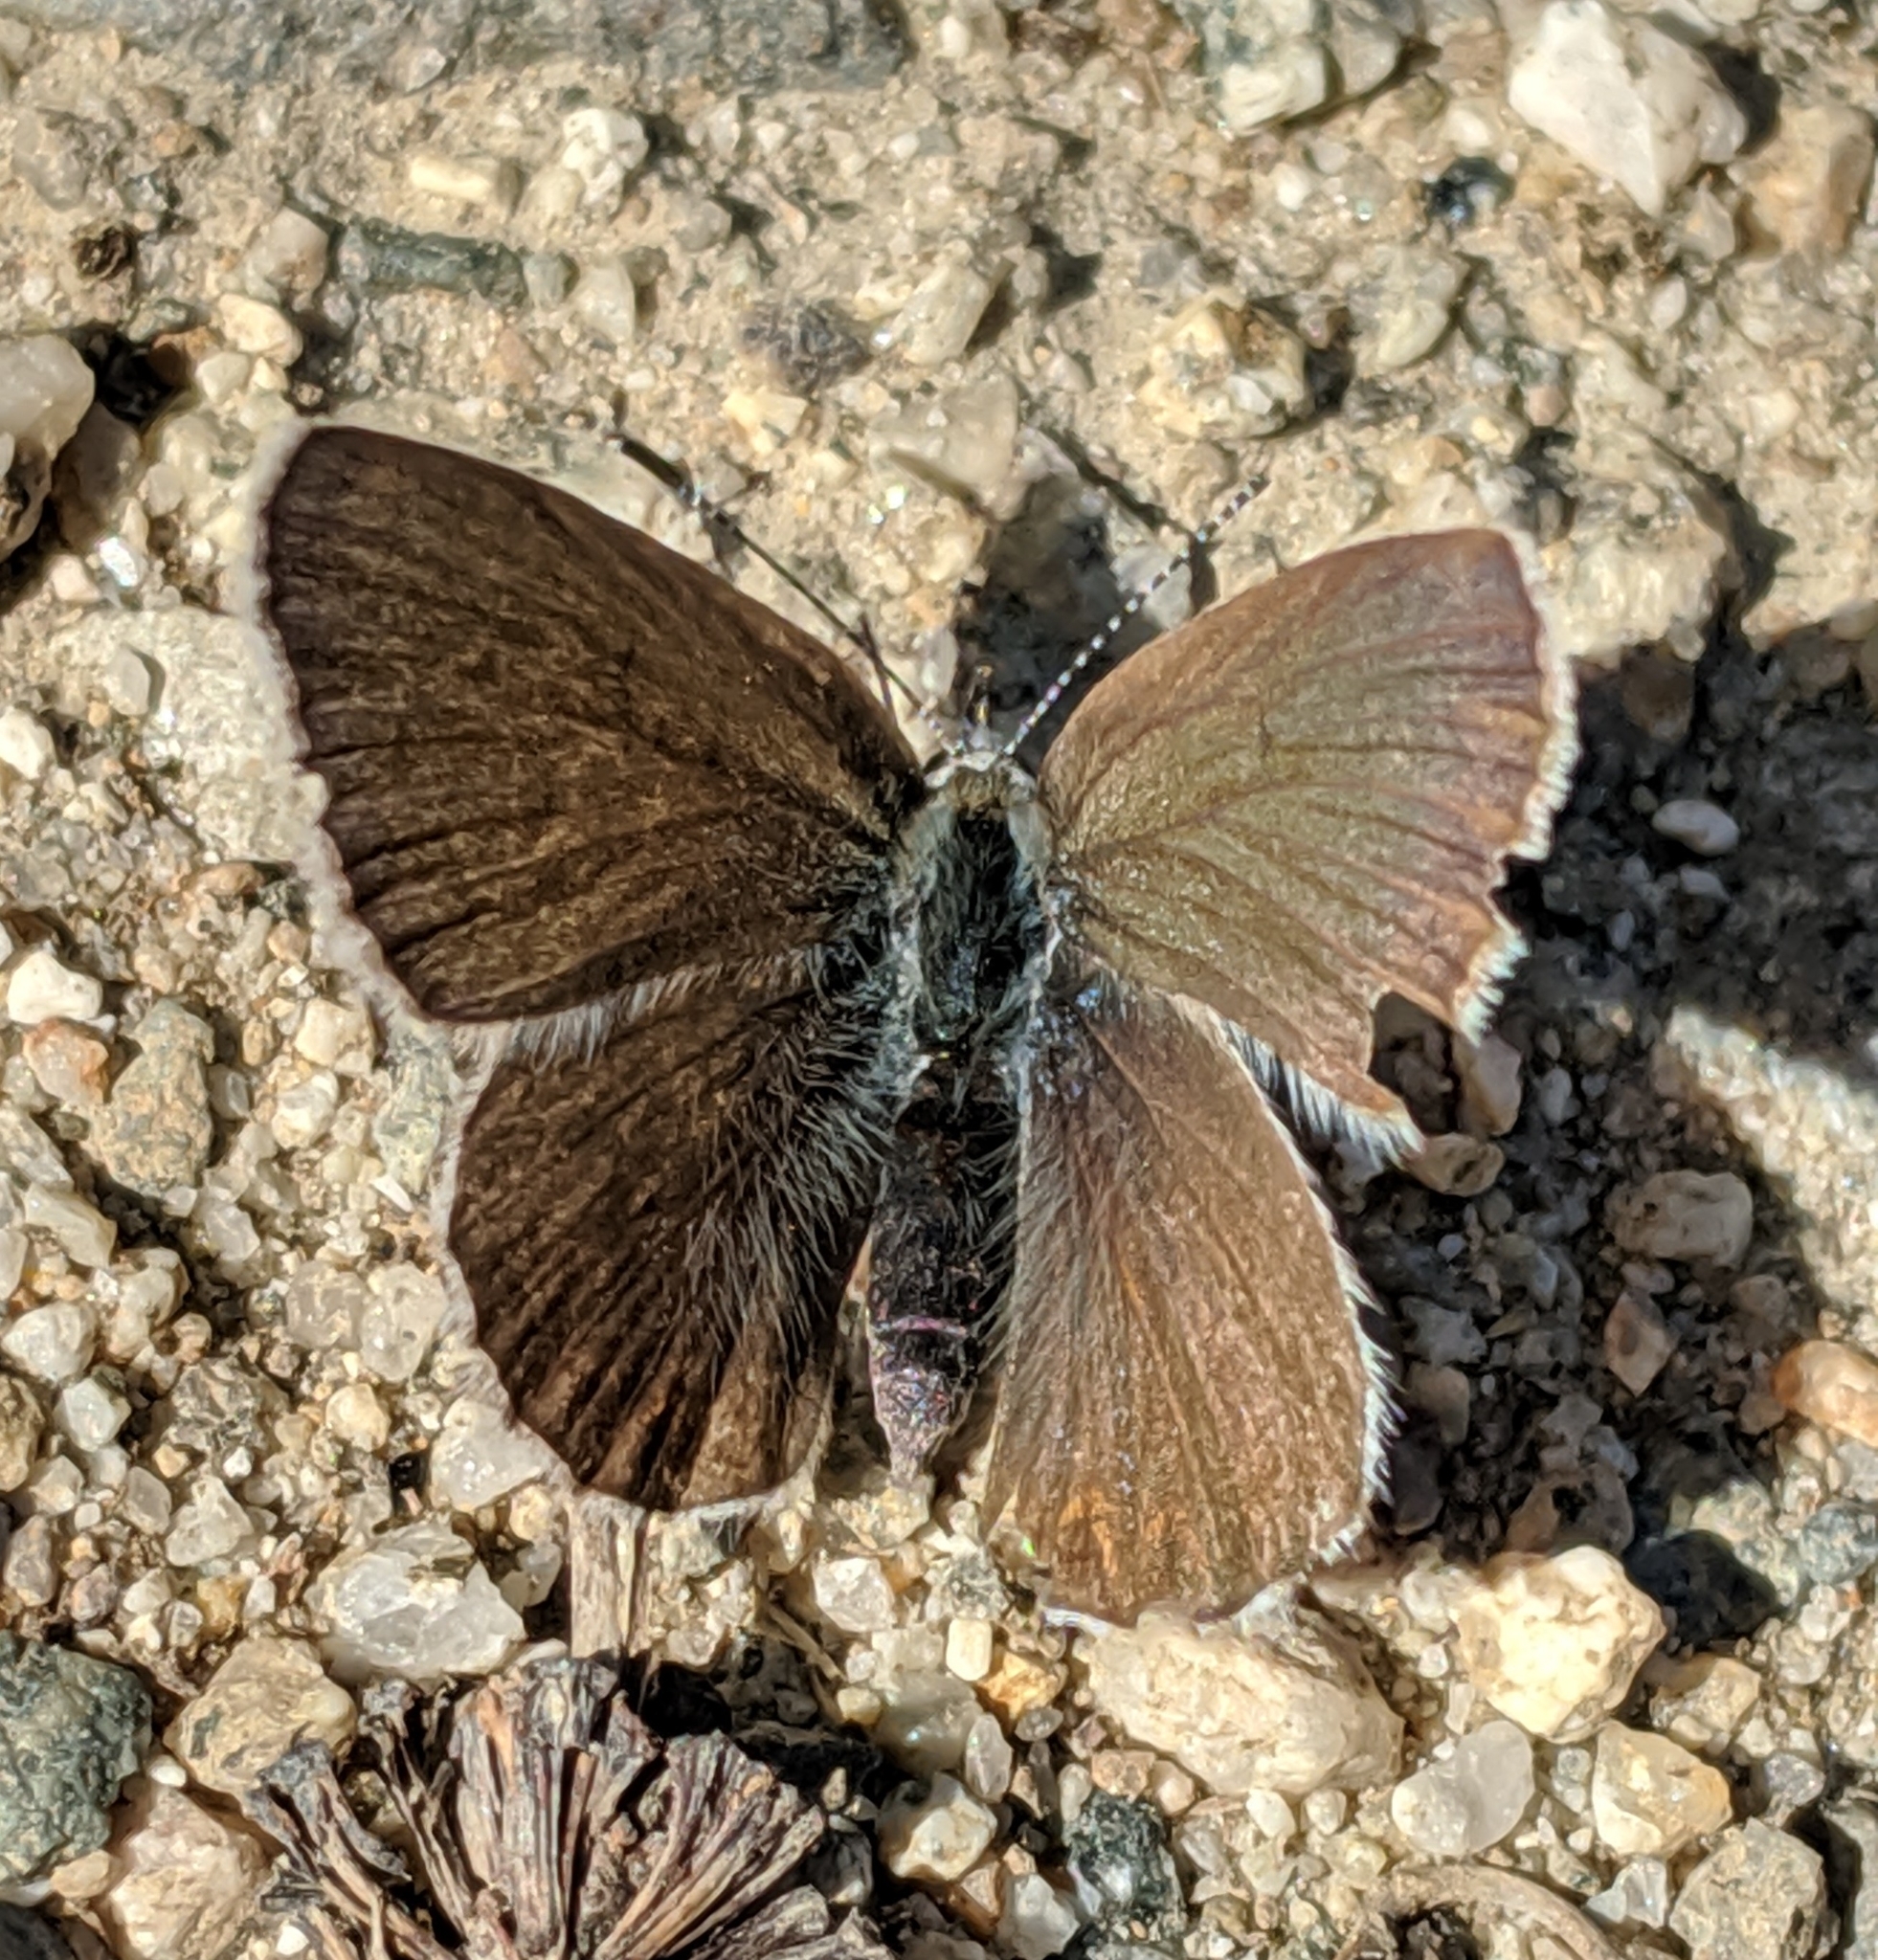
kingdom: Animalia
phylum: Arthropoda
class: Insecta
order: Lepidoptera
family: Lycaenidae
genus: Lycaeides
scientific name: Lycaeides idas
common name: Northern blue
